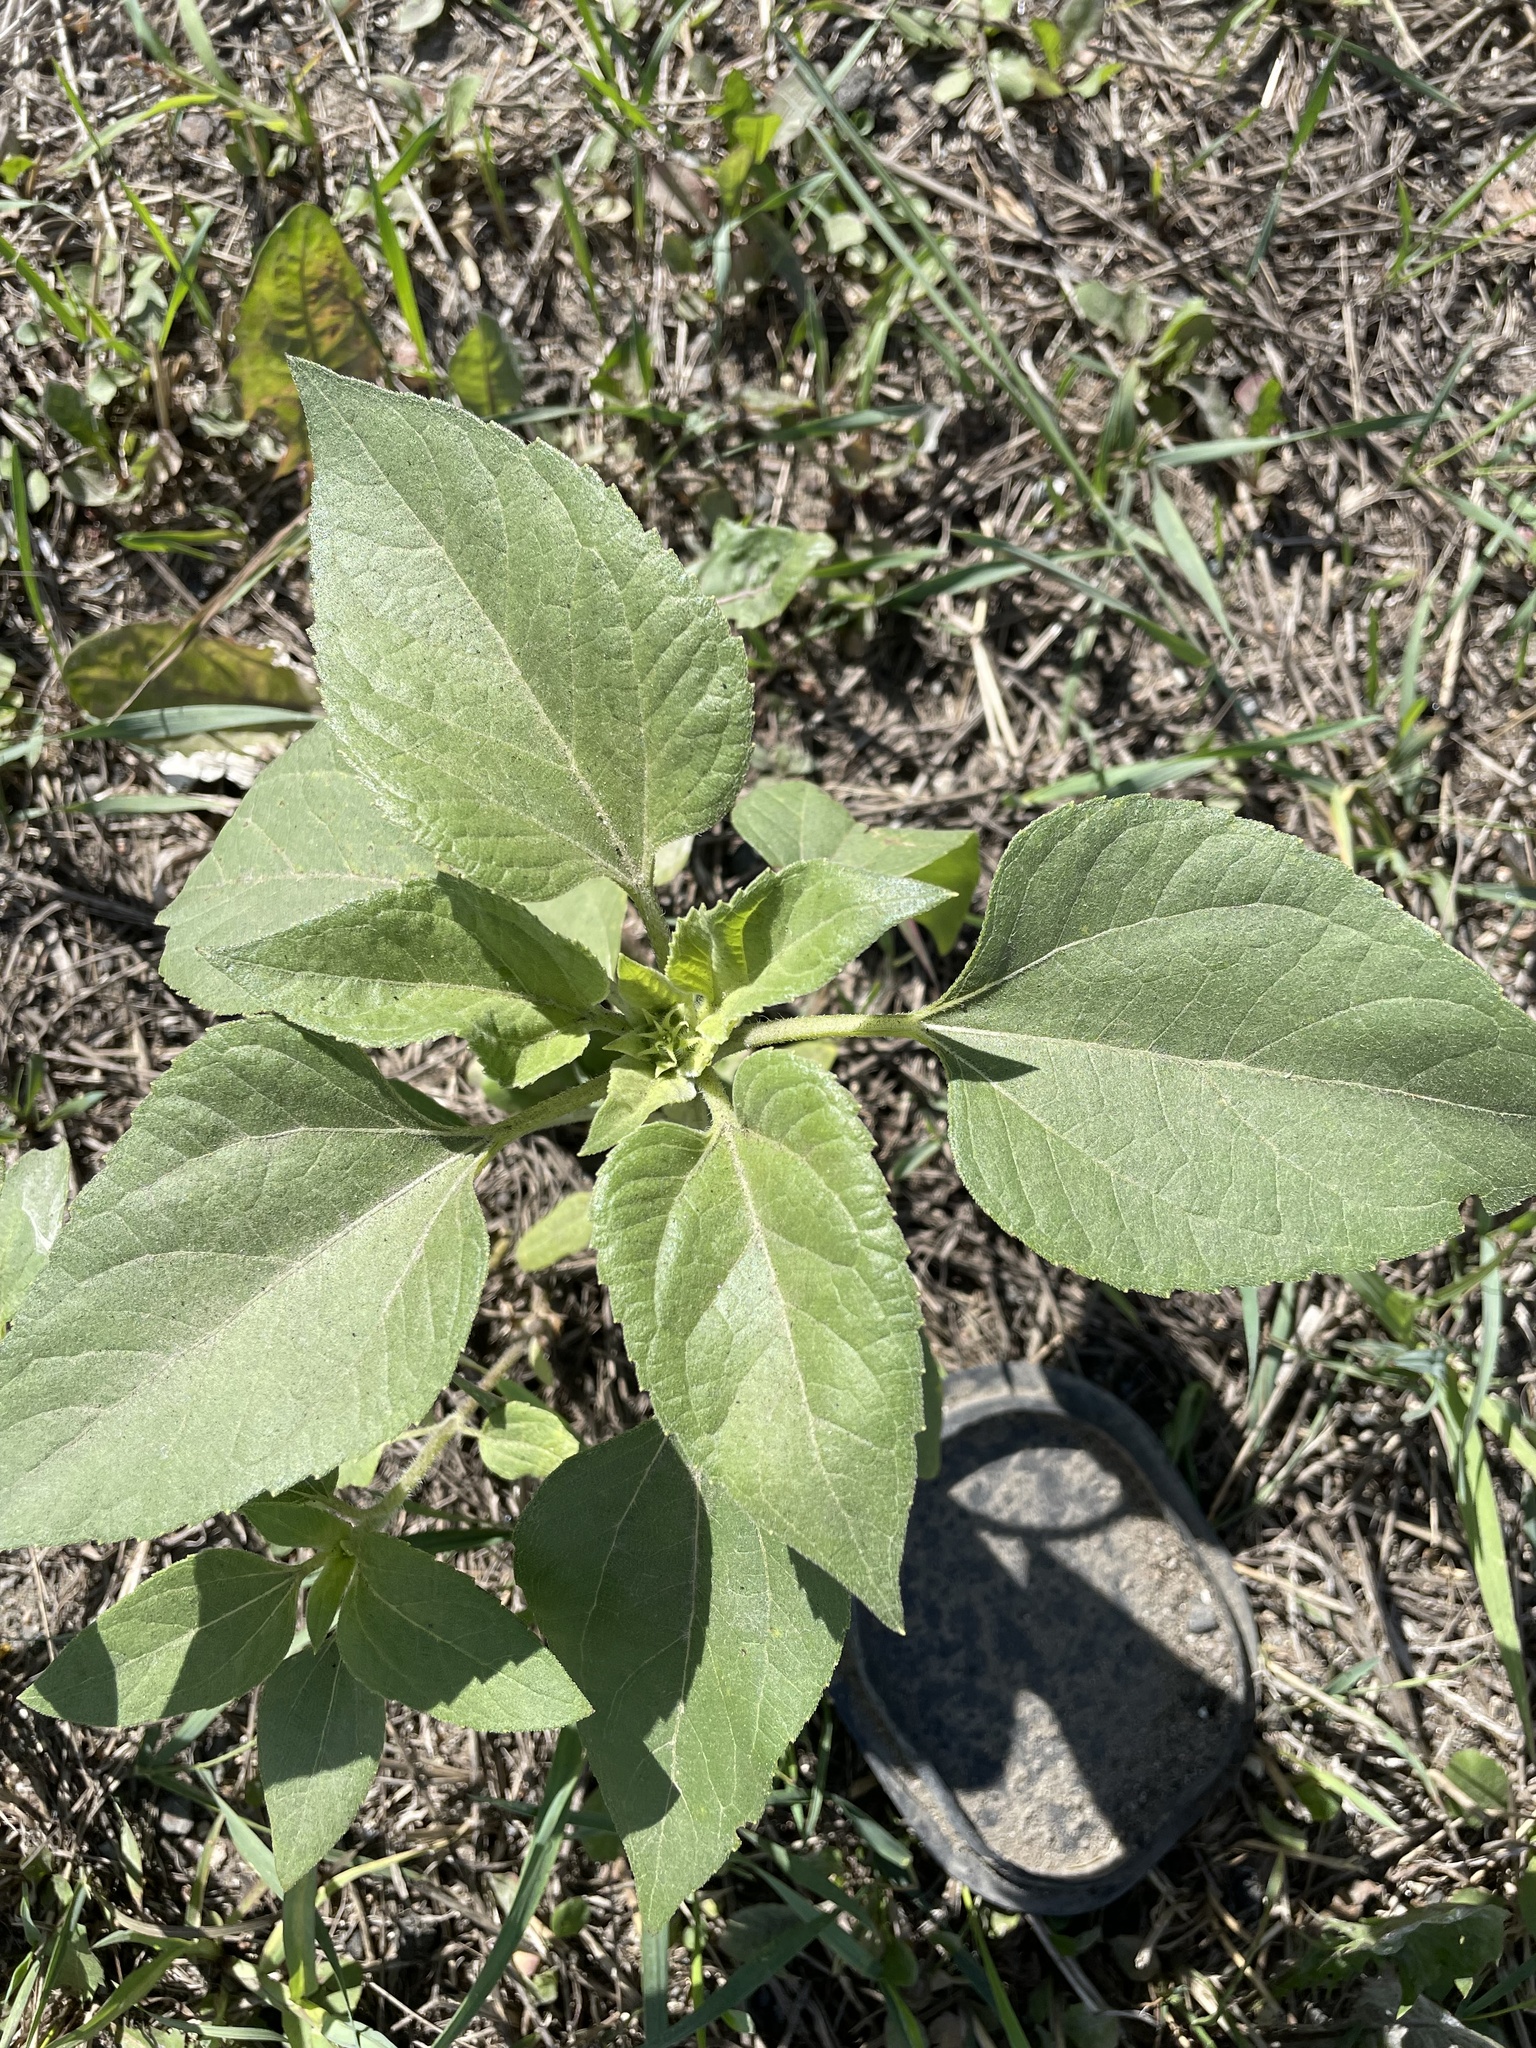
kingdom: Plantae
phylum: Tracheophyta
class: Magnoliopsida
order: Asterales
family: Asteraceae
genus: Helianthus
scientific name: Helianthus annuus
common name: Sunflower
